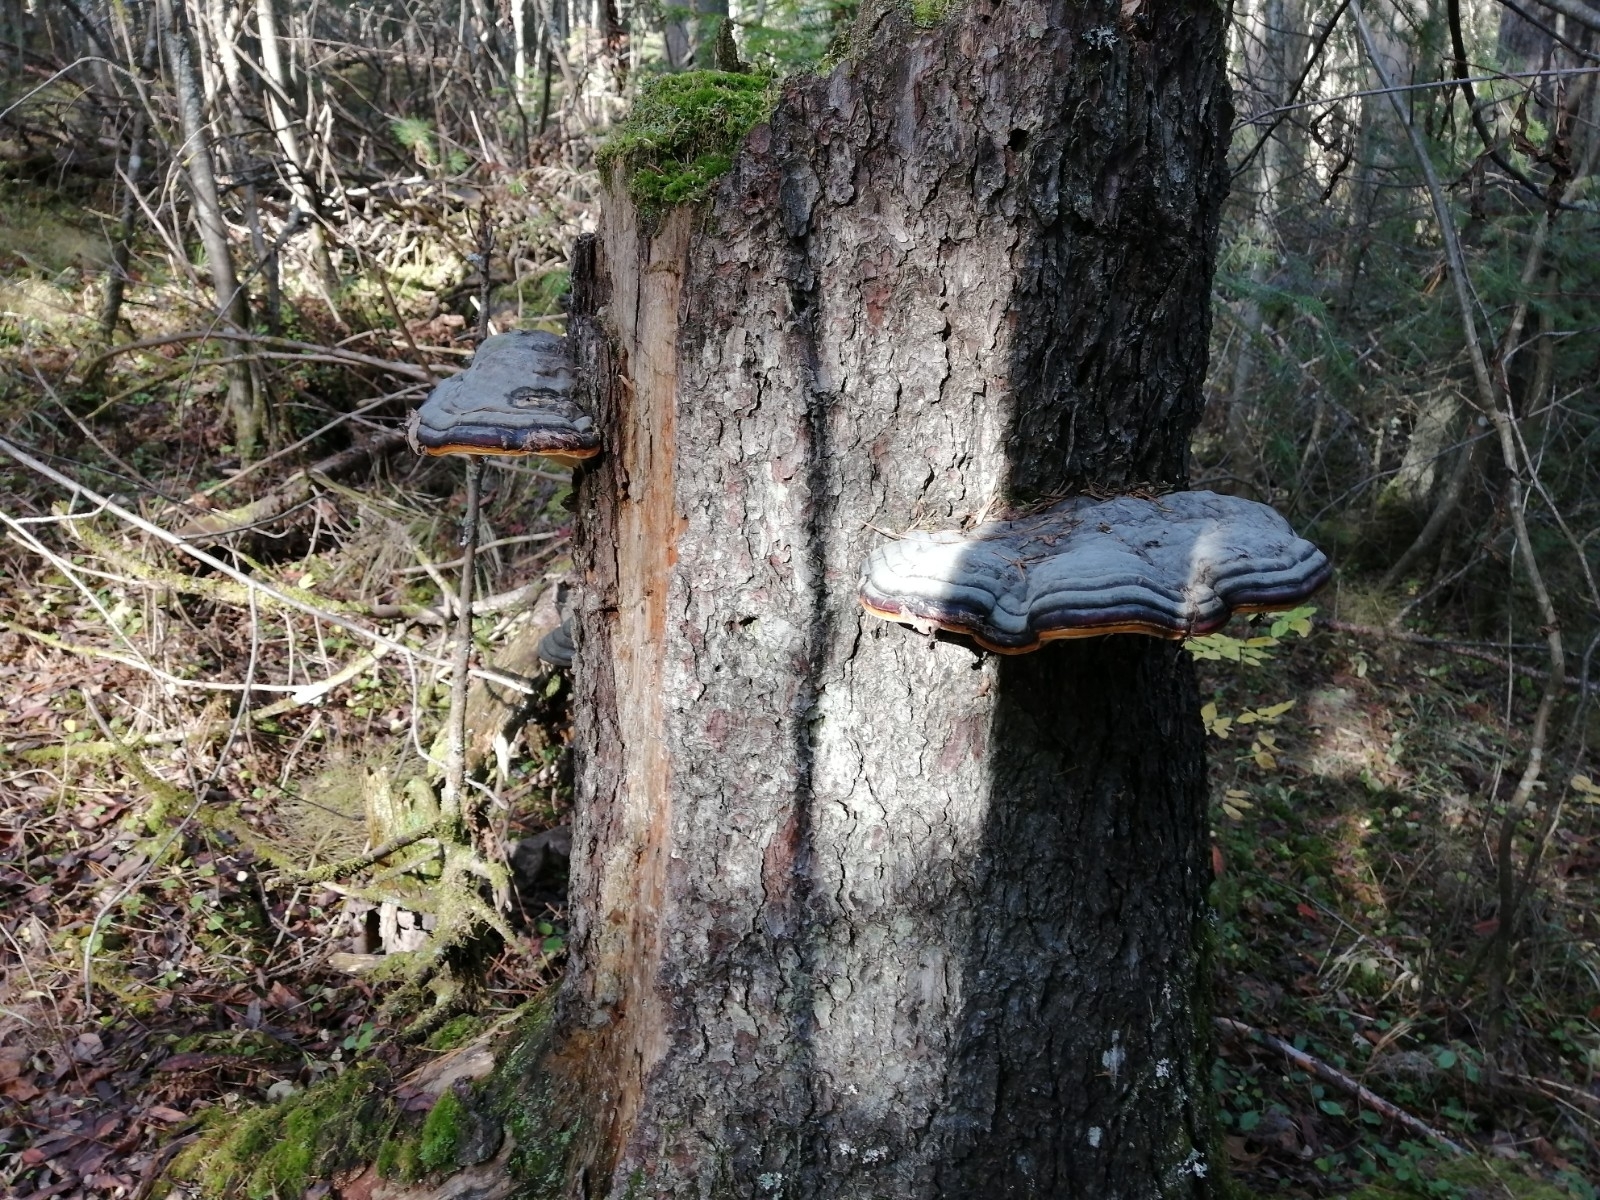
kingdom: Fungi
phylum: Basidiomycota
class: Agaricomycetes
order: Polyporales
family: Fomitopsidaceae
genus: Fomitopsis
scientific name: Fomitopsis pinicola
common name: Red-belted bracket
